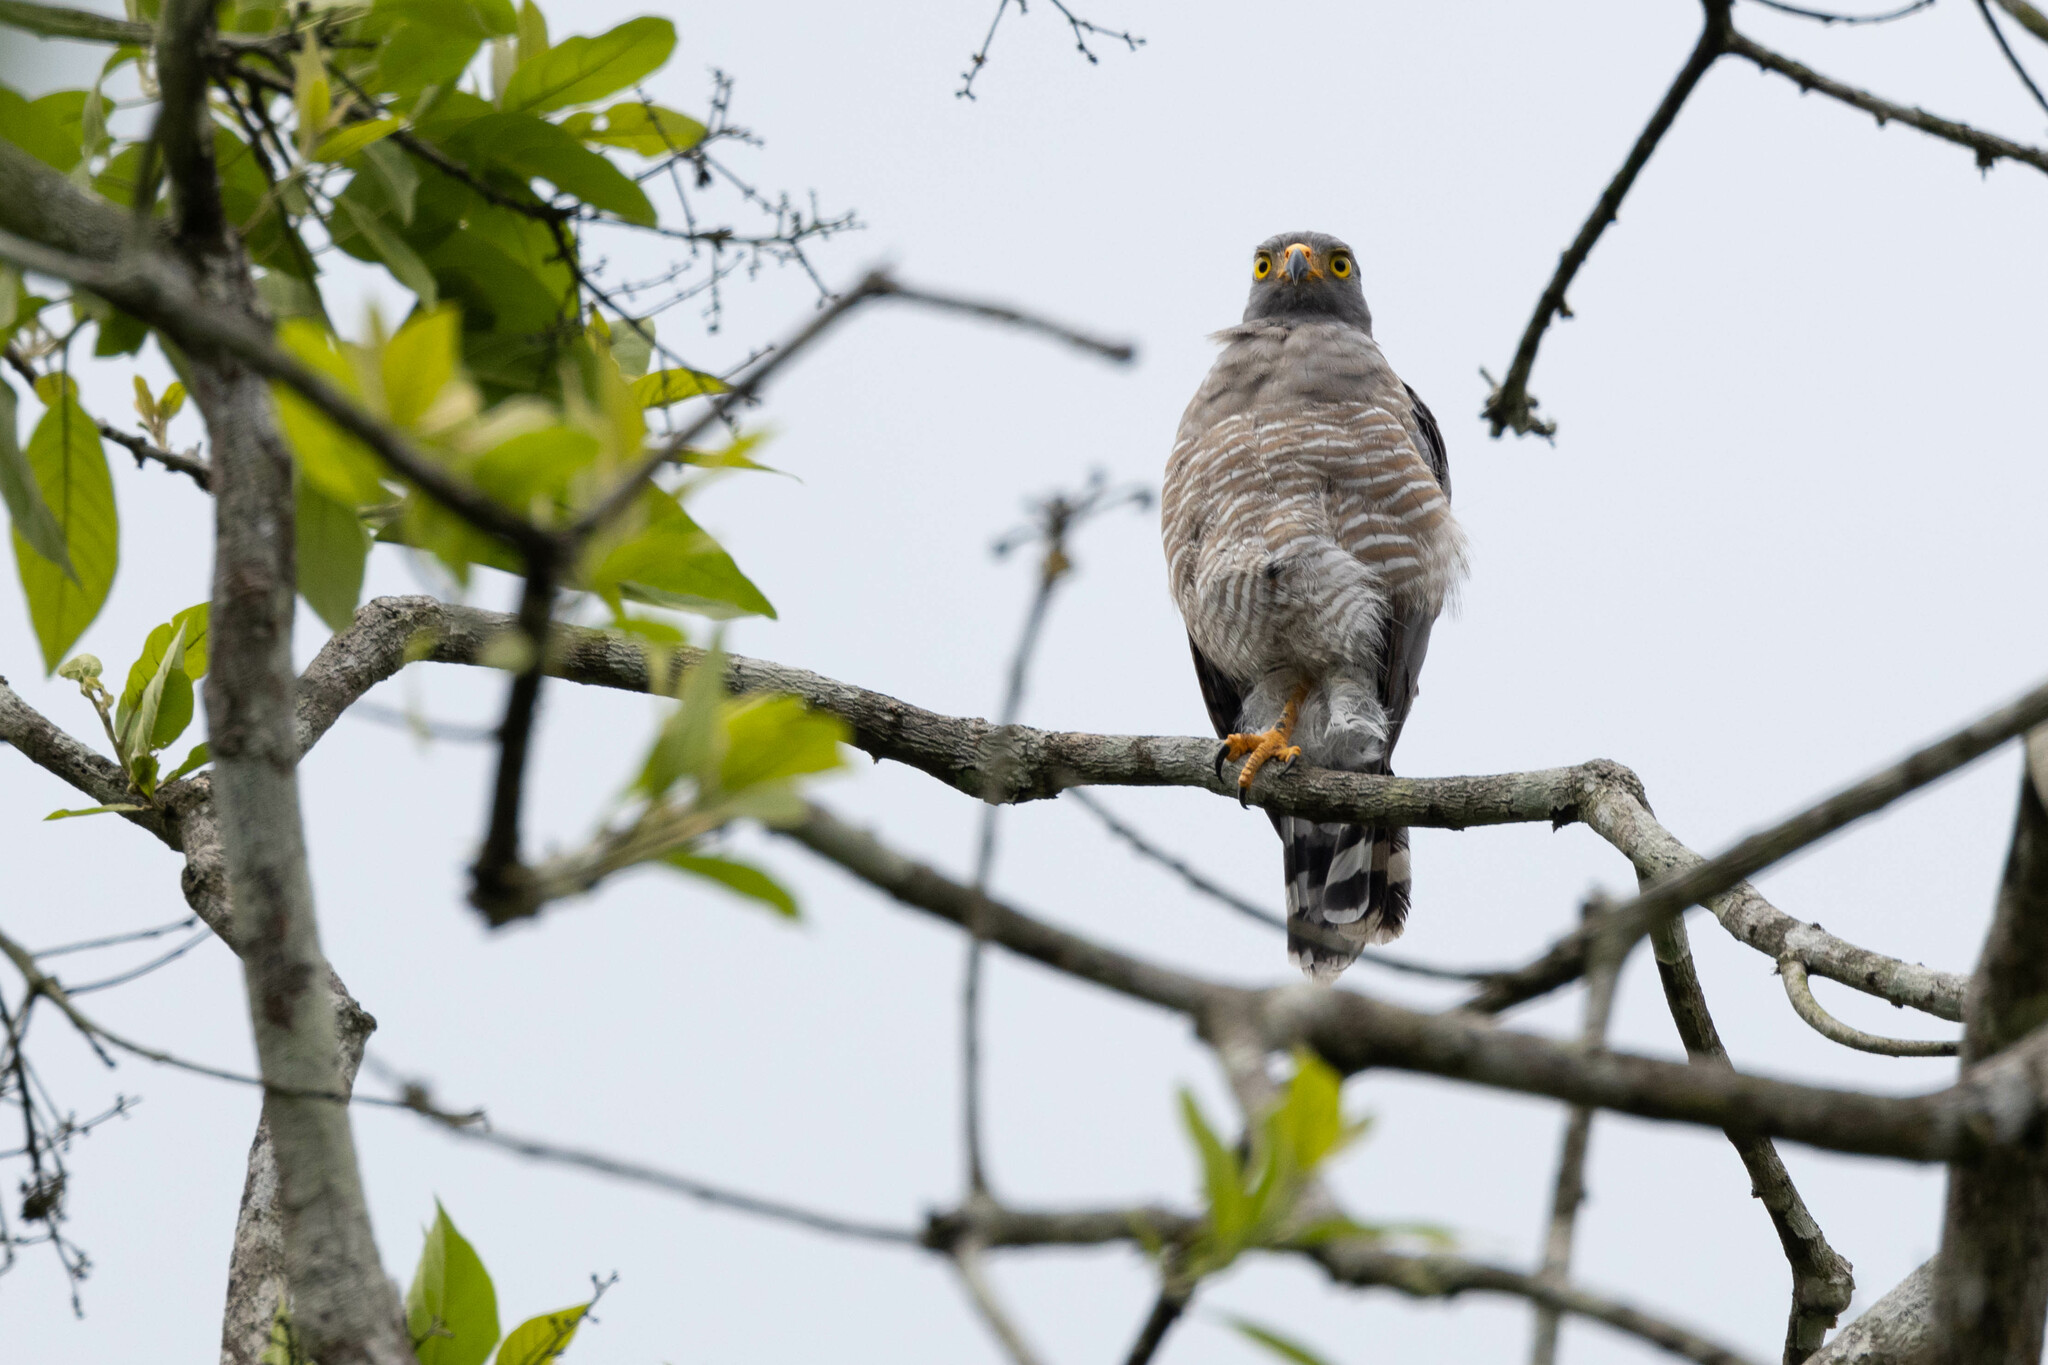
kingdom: Animalia
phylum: Chordata
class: Aves
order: Accipitriformes
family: Accipitridae
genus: Rupornis
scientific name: Rupornis magnirostris
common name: Roadside hawk
